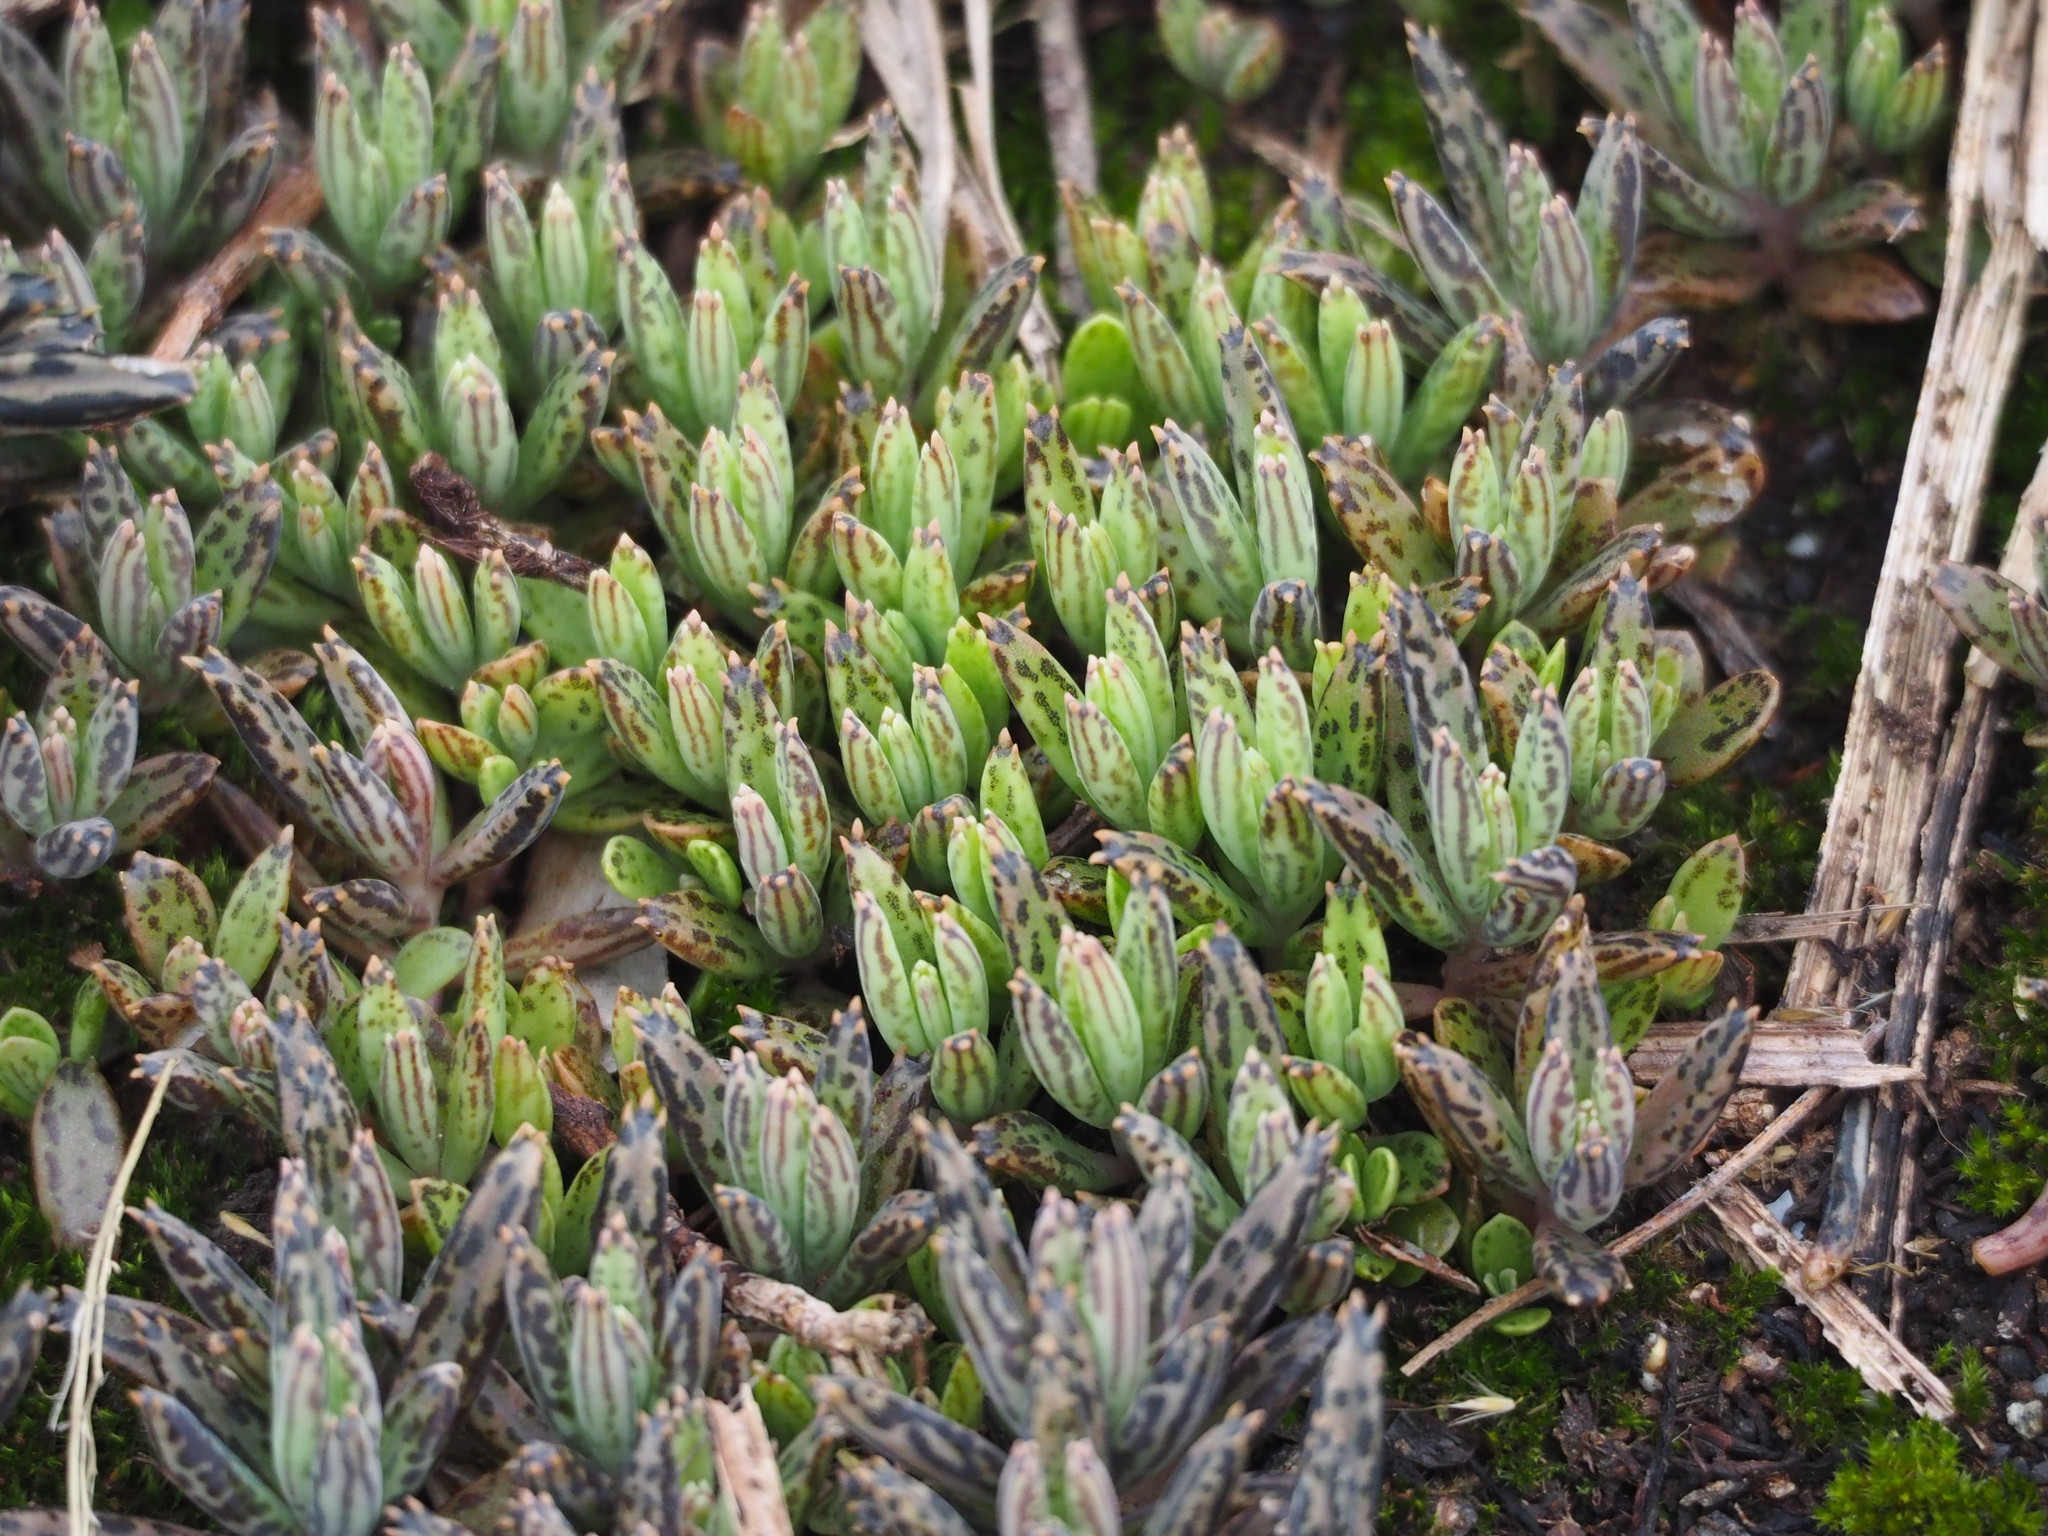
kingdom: Plantae
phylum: Tracheophyta
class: Magnoliopsida
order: Saxifragales
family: Crassulaceae
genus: Kalanchoe
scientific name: Kalanchoe delagoensis
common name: Chandelier plant
